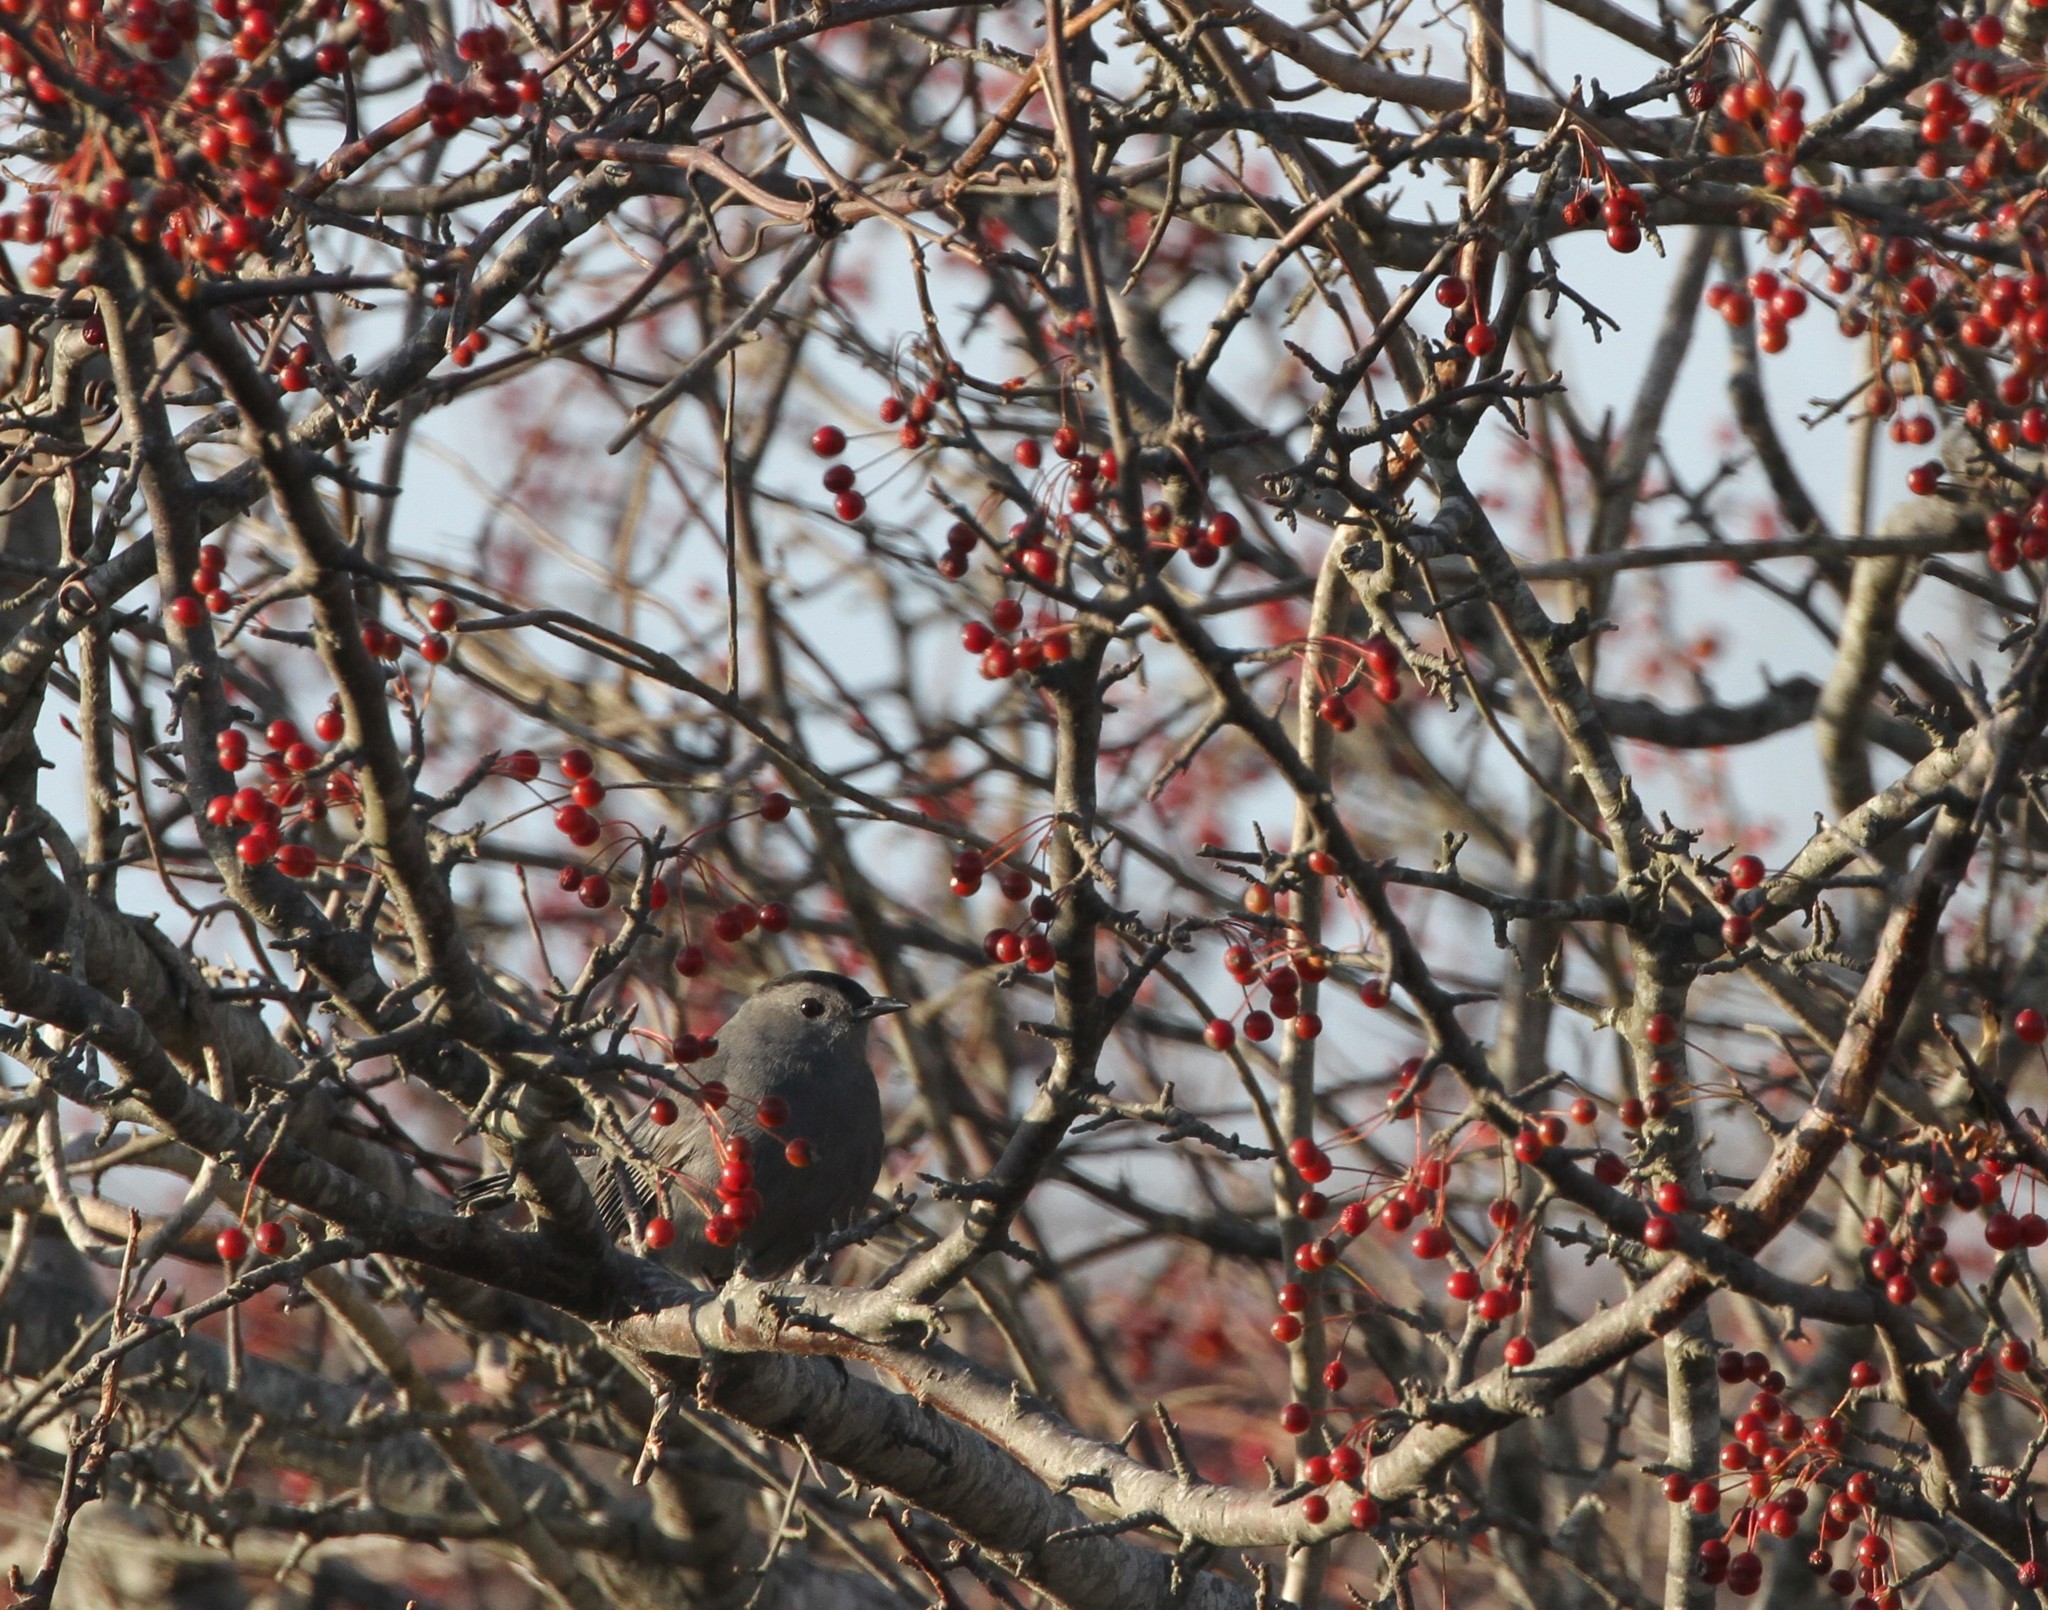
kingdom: Animalia
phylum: Chordata
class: Aves
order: Passeriformes
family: Mimidae
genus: Dumetella
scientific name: Dumetella carolinensis
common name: Gray catbird
